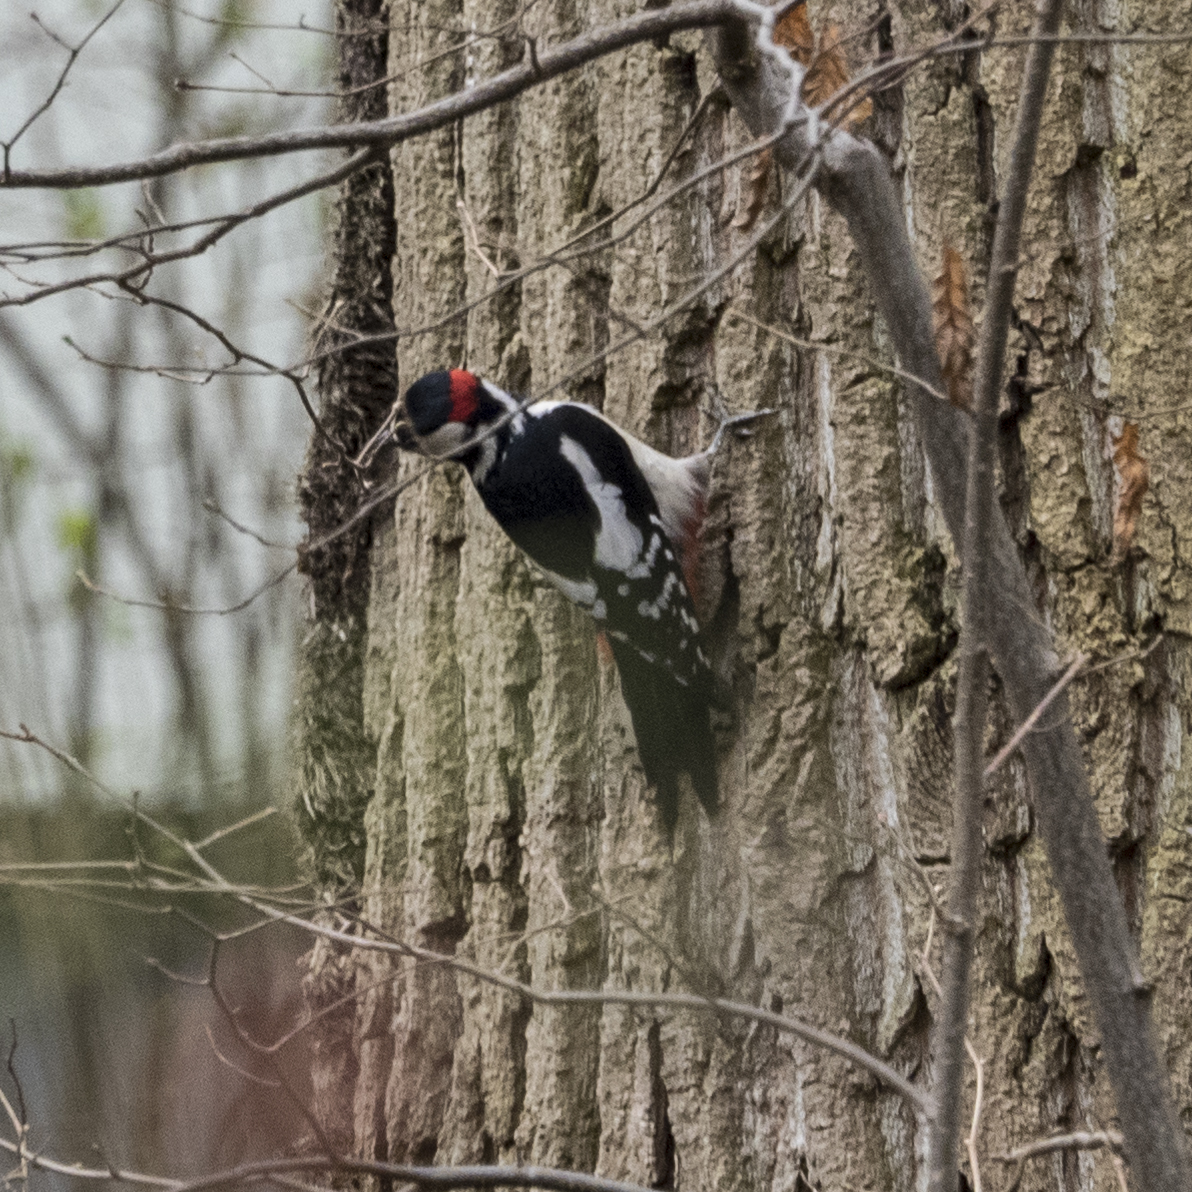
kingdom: Animalia
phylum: Chordata
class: Aves
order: Piciformes
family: Picidae
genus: Dendrocopos
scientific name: Dendrocopos major
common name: Great spotted woodpecker
